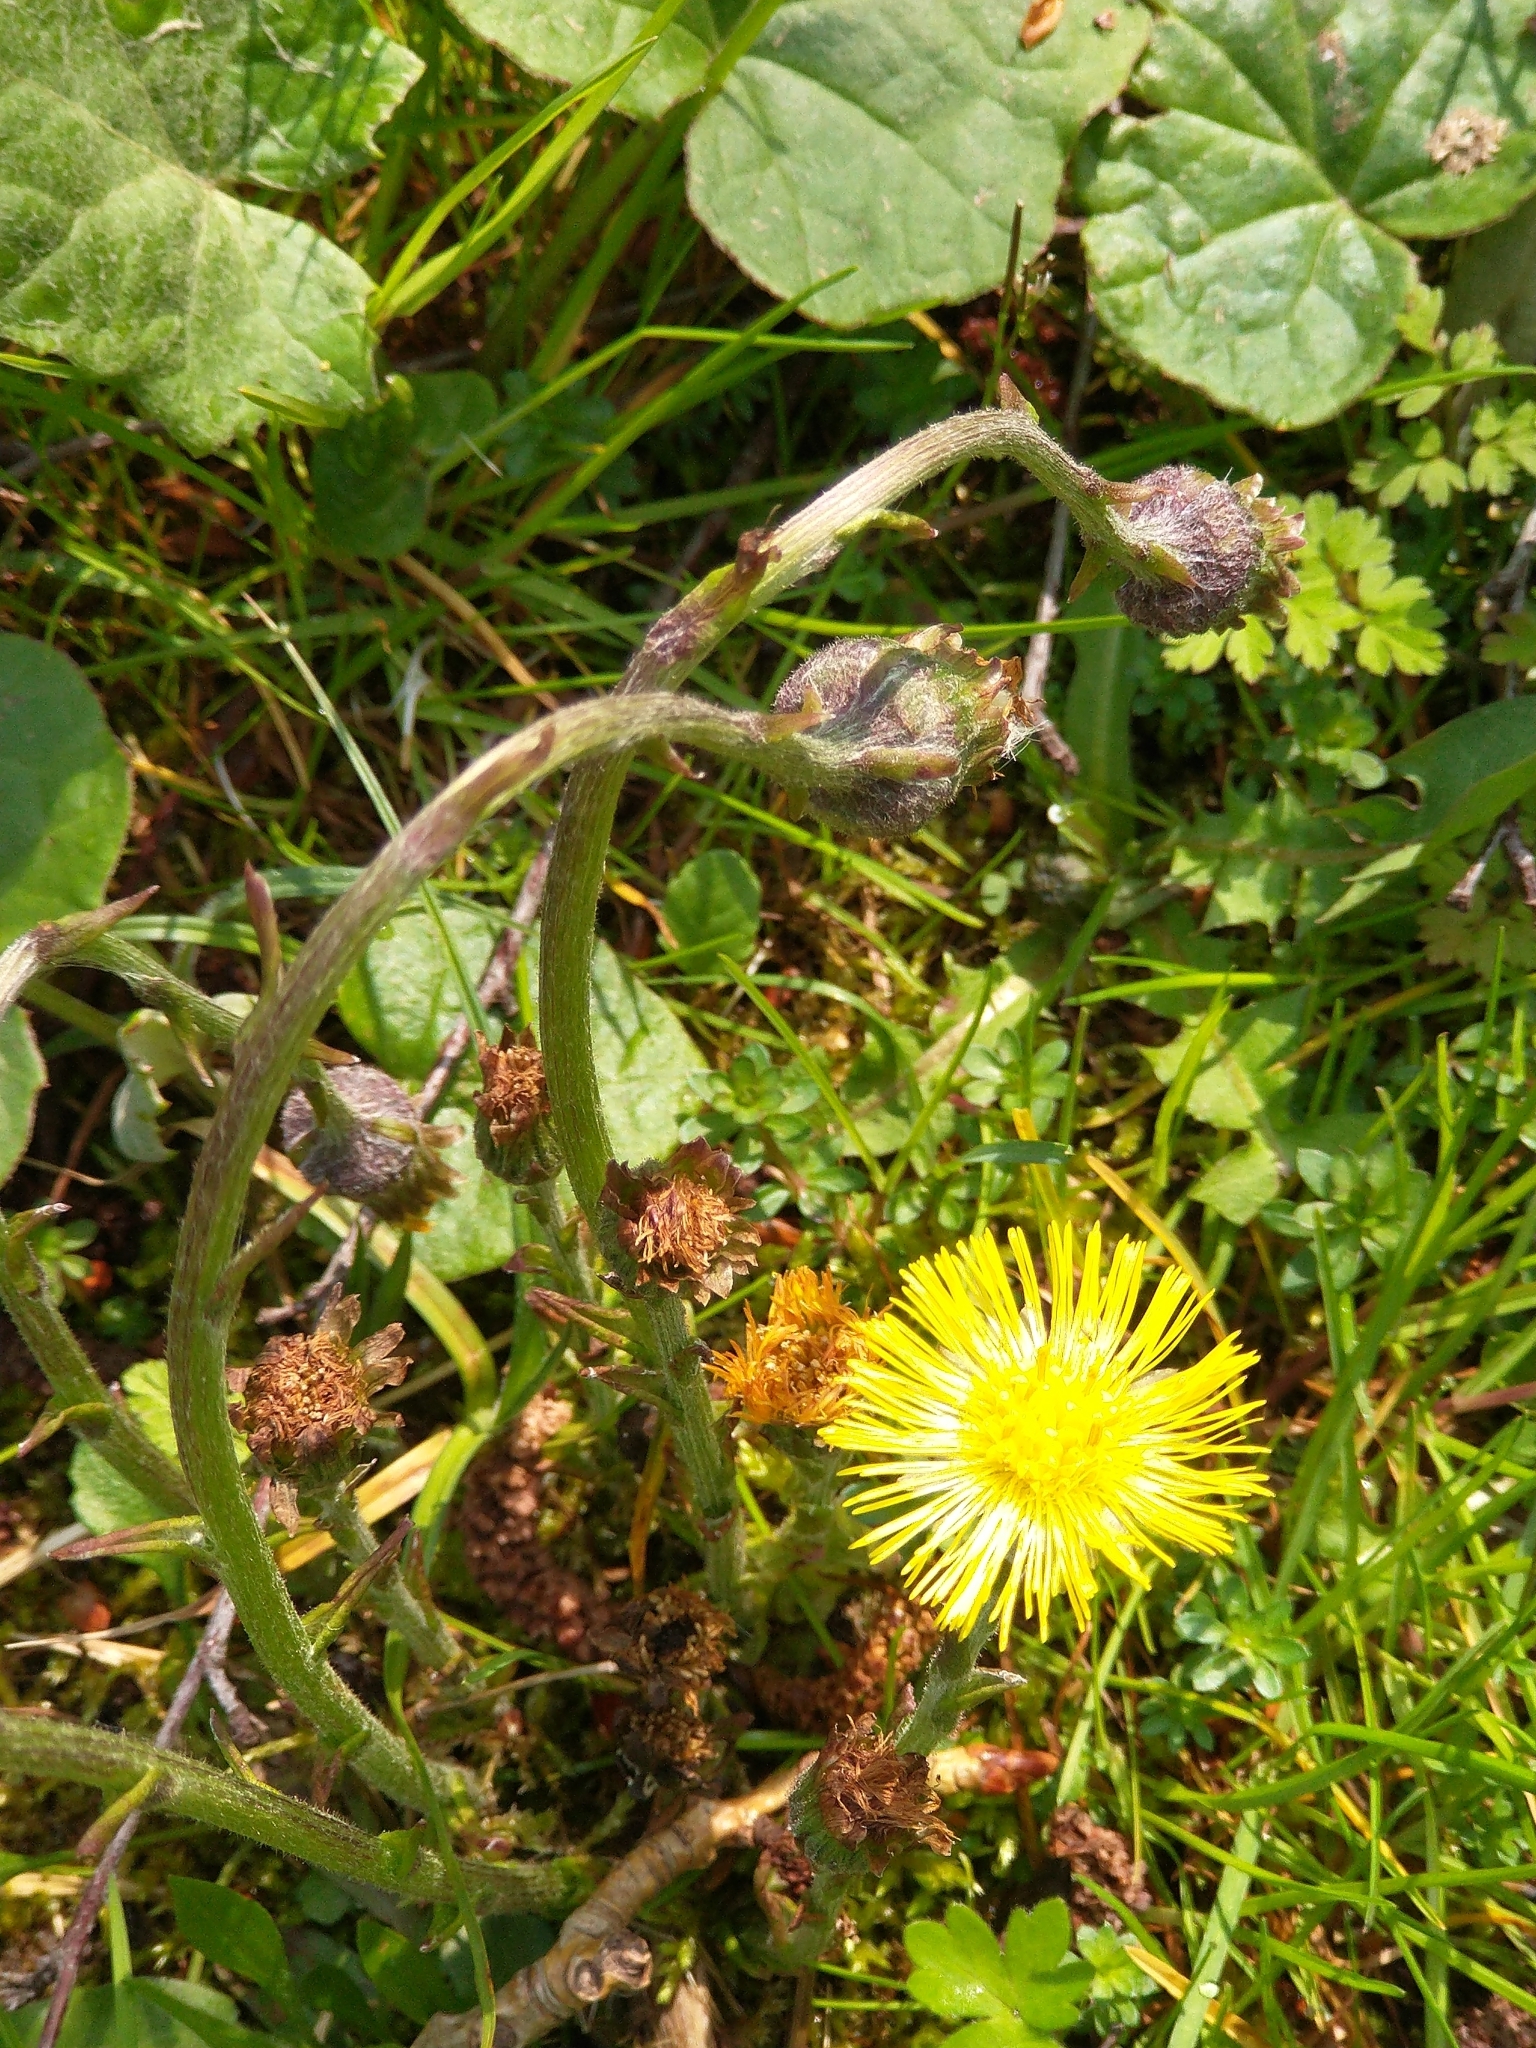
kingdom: Plantae
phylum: Tracheophyta
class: Magnoliopsida
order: Asterales
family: Asteraceae
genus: Tussilago
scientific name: Tussilago farfara
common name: Coltsfoot
